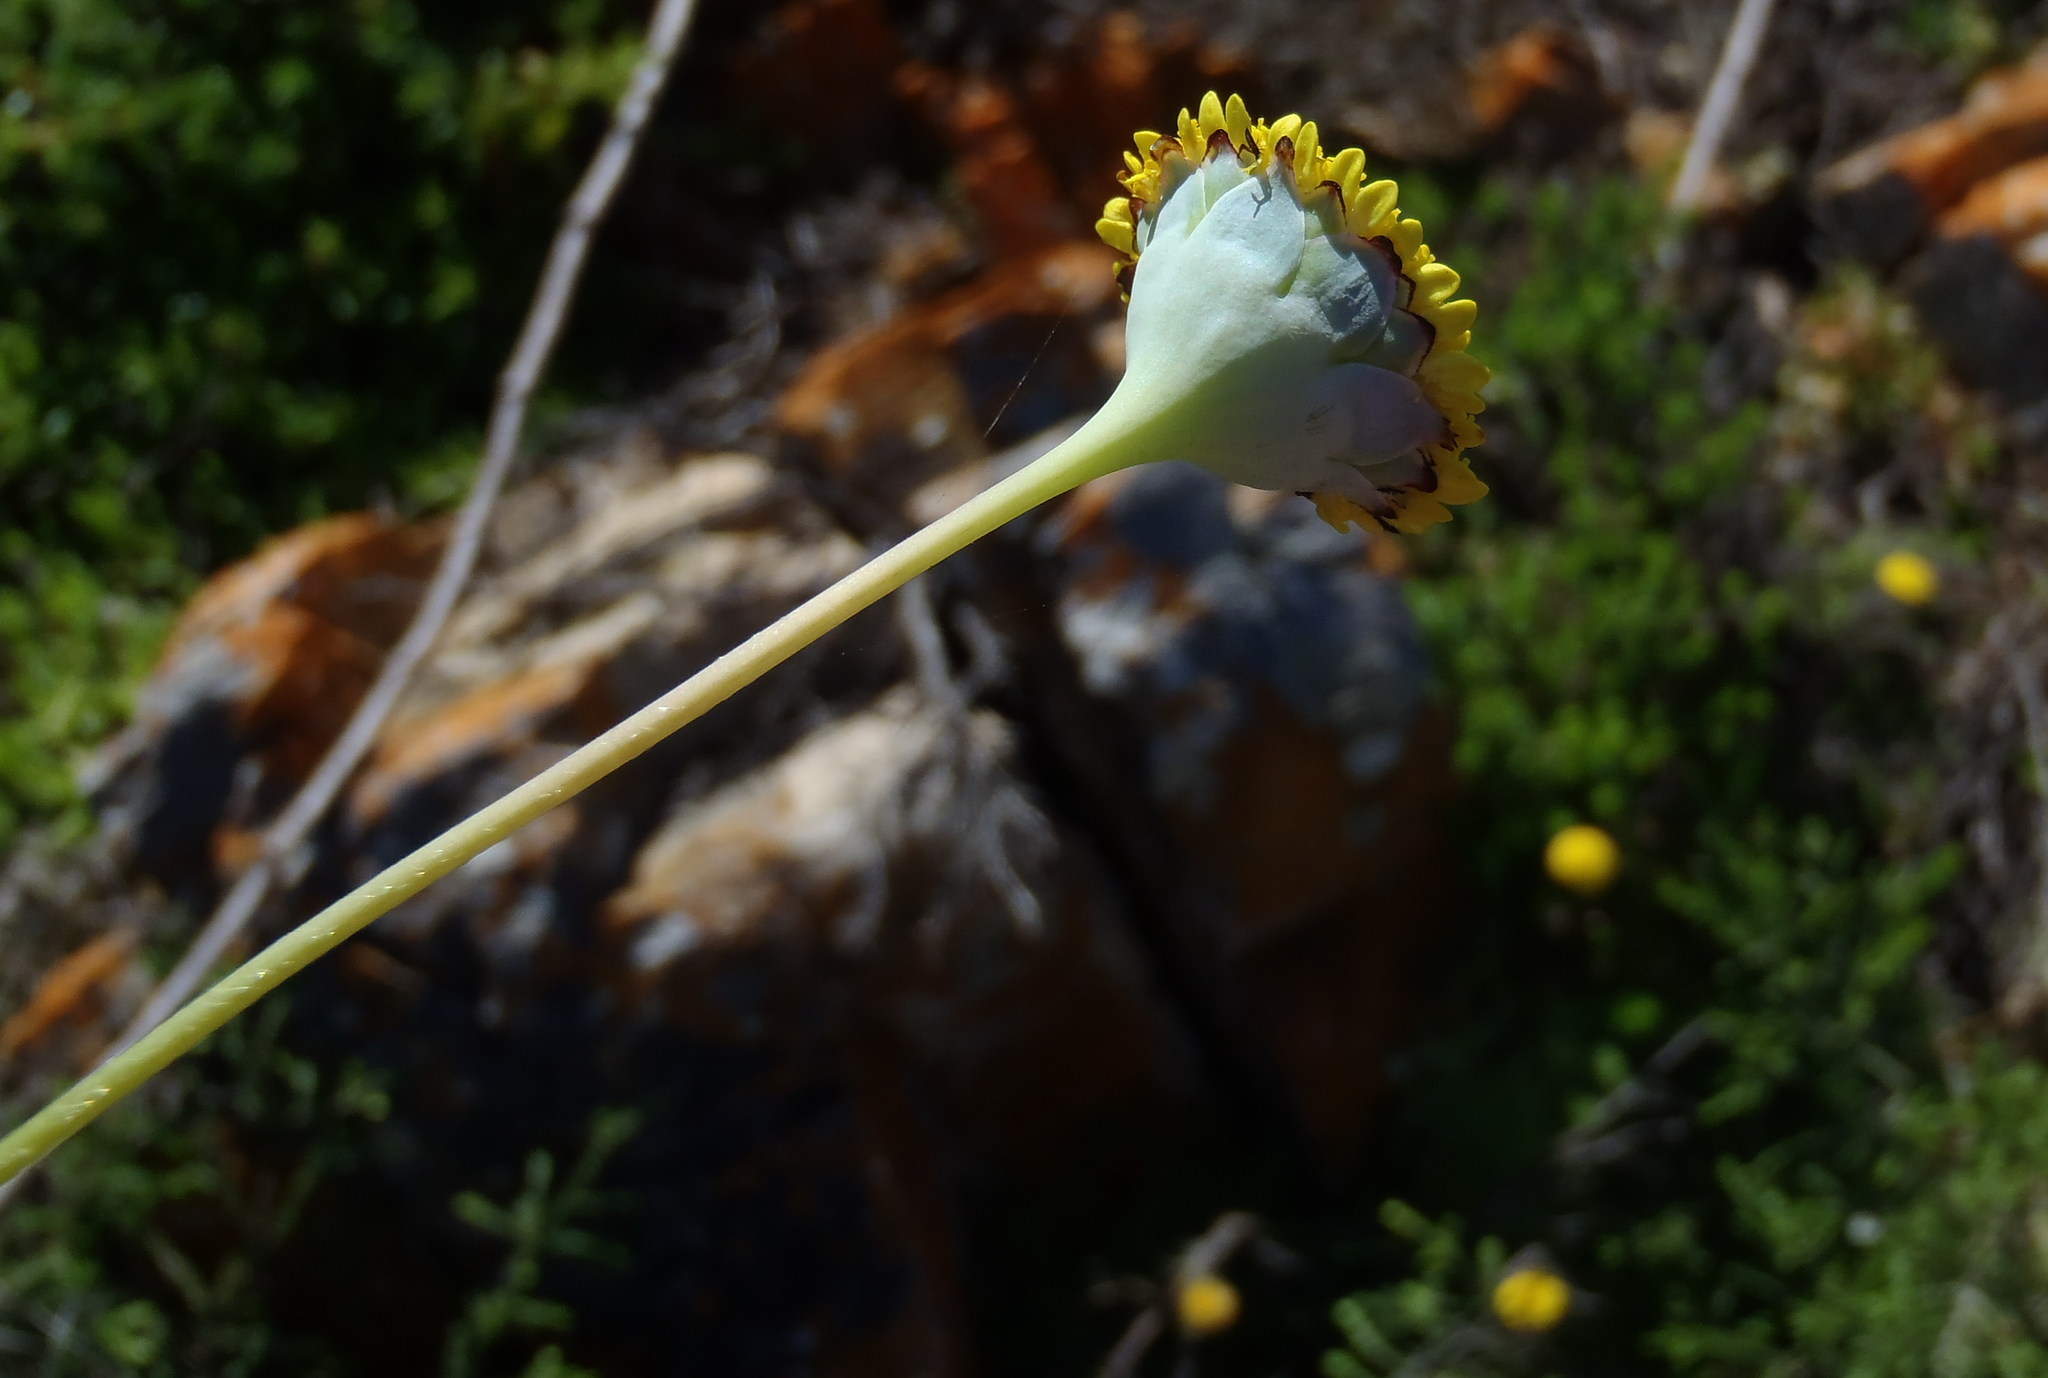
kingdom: Plantae
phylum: Tracheophyta
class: Magnoliopsida
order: Asterales
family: Asteraceae
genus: Cotula
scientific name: Cotula discolor
